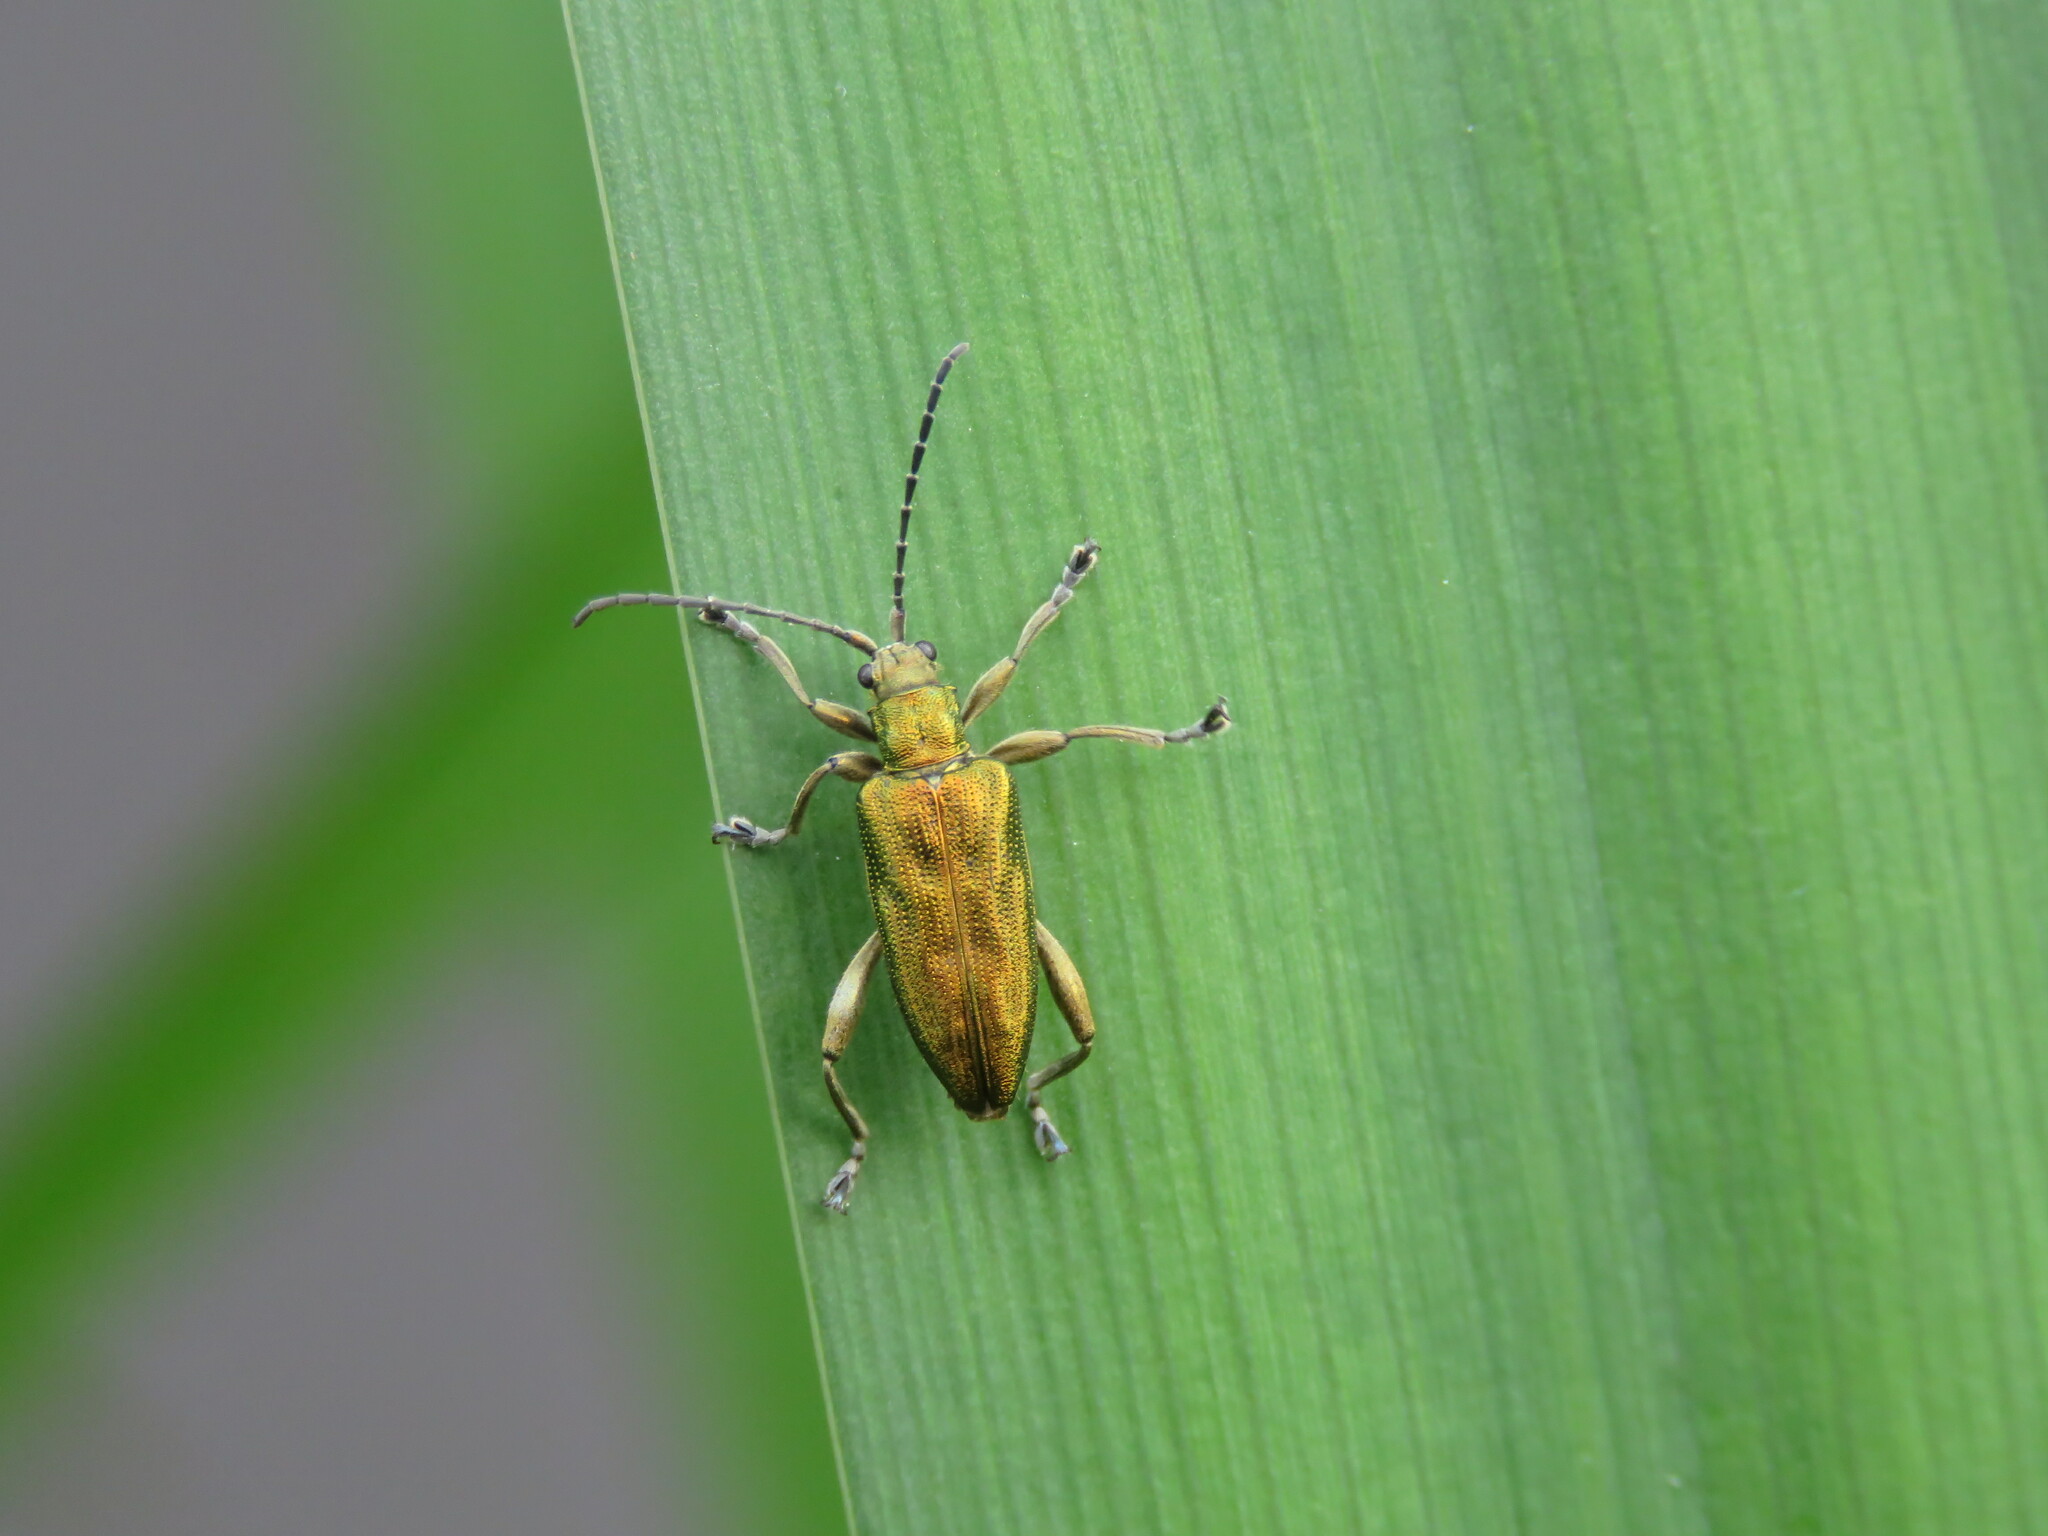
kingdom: Animalia
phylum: Arthropoda
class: Insecta
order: Coleoptera
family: Chrysomelidae
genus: Donacia
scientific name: Donacia bicolora
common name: Reed beetle
